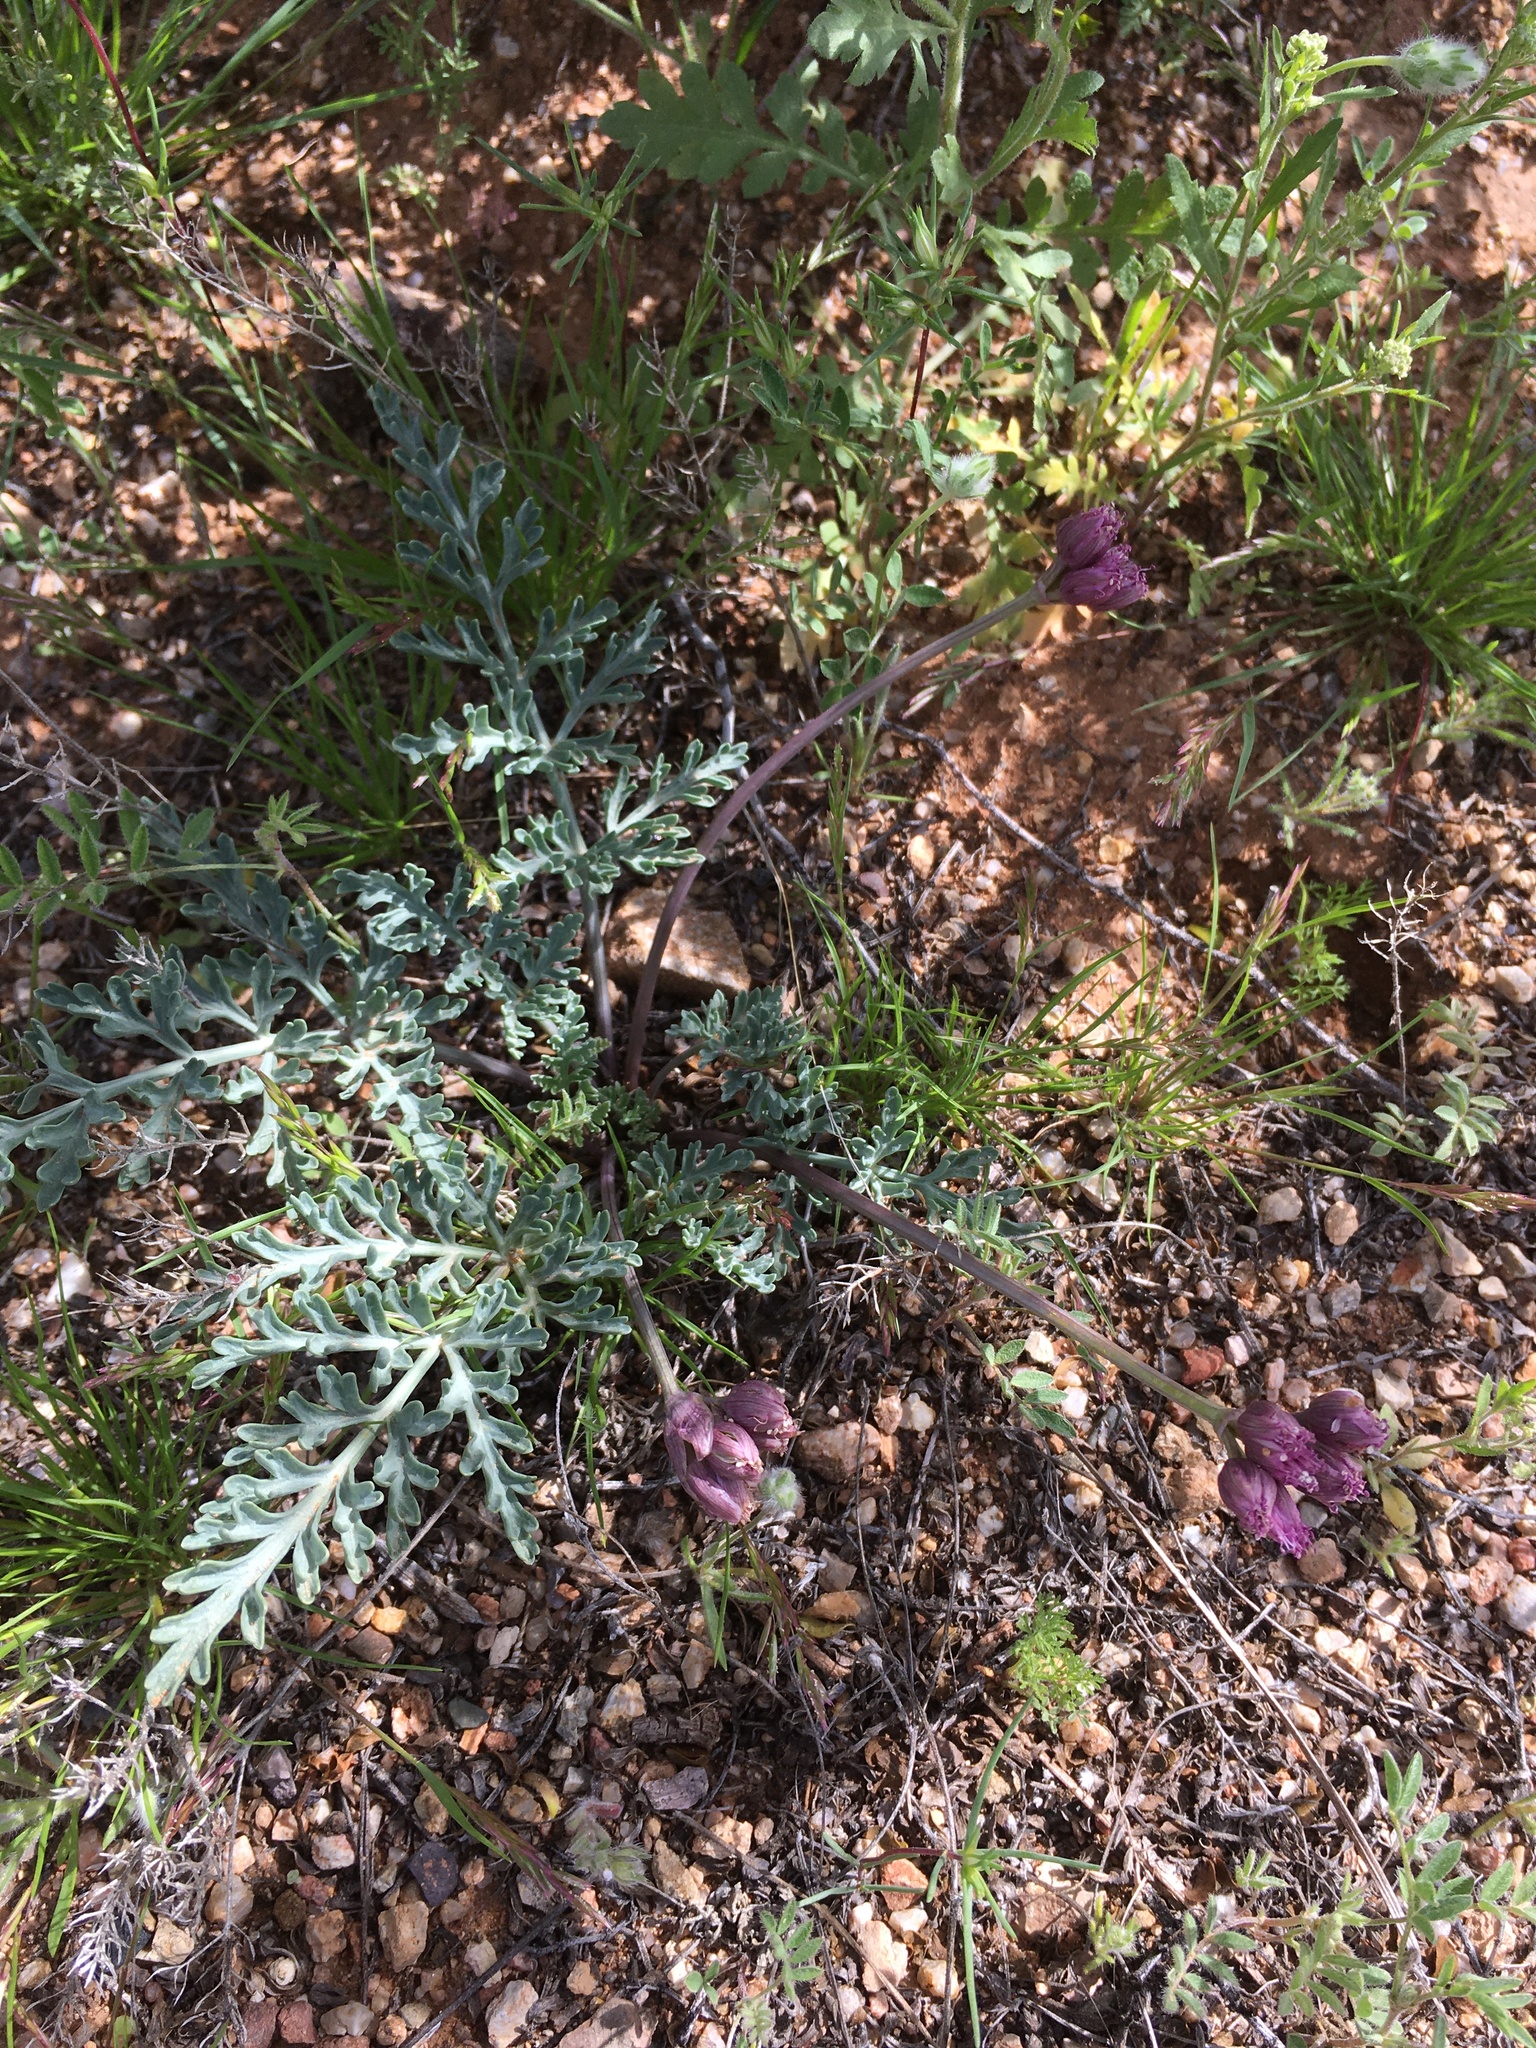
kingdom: Plantae
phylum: Tracheophyta
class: Magnoliopsida
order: Apiales
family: Apiaceae
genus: Vesper
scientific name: Vesper multinervatus
